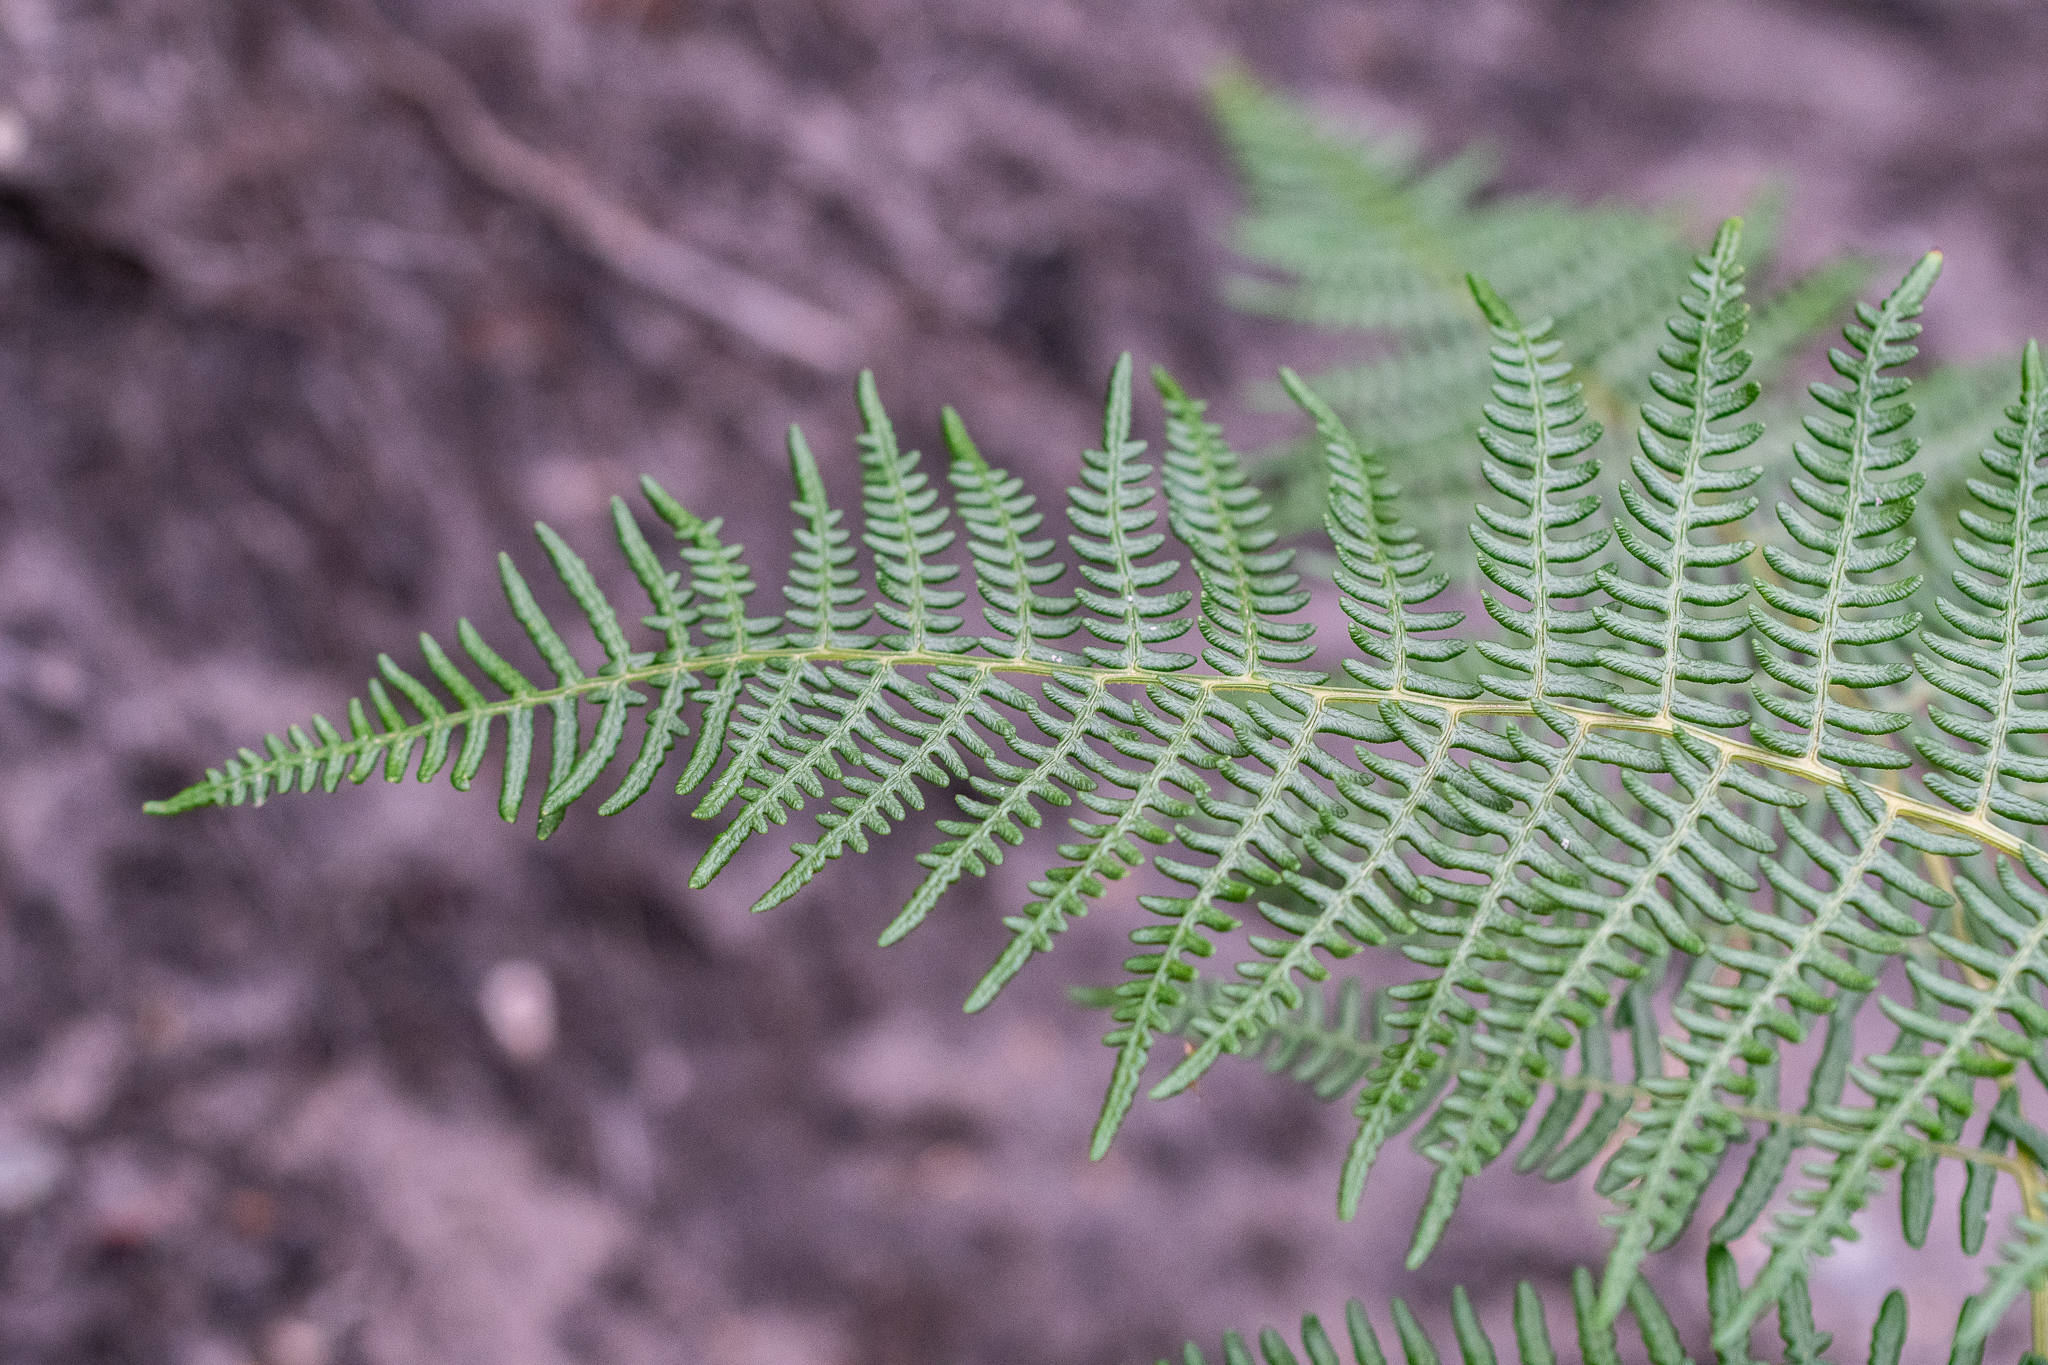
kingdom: Plantae
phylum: Tracheophyta
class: Polypodiopsida
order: Polypodiales
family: Dennstaedtiaceae
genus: Pteridium
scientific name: Pteridium aquilinum
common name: Bracken
